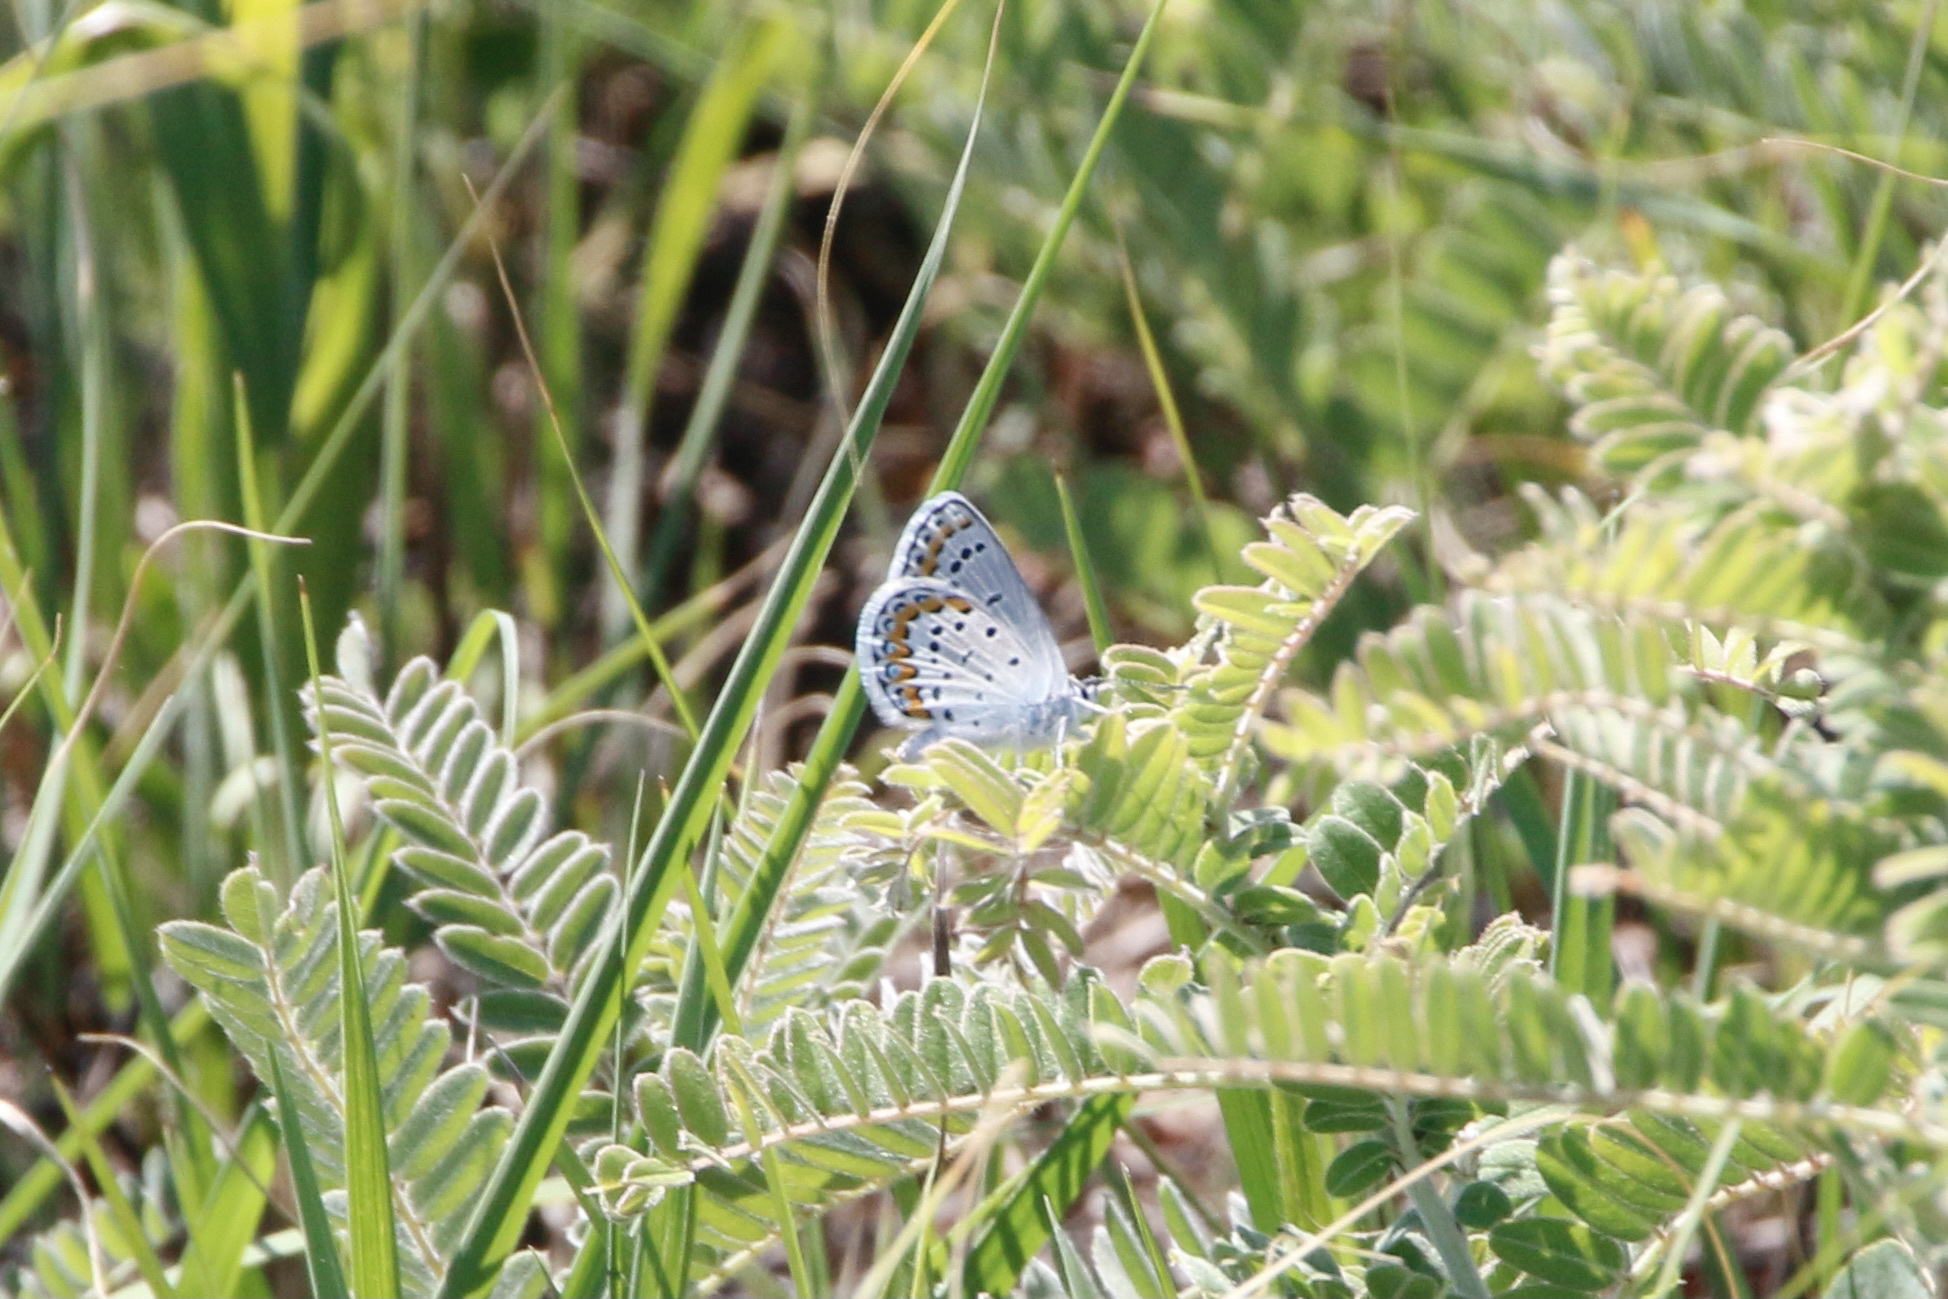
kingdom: Animalia
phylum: Arthropoda
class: Insecta
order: Lepidoptera
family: Lycaenidae
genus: Lycaeides
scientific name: Lycaeides melissa
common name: Melissa blue
